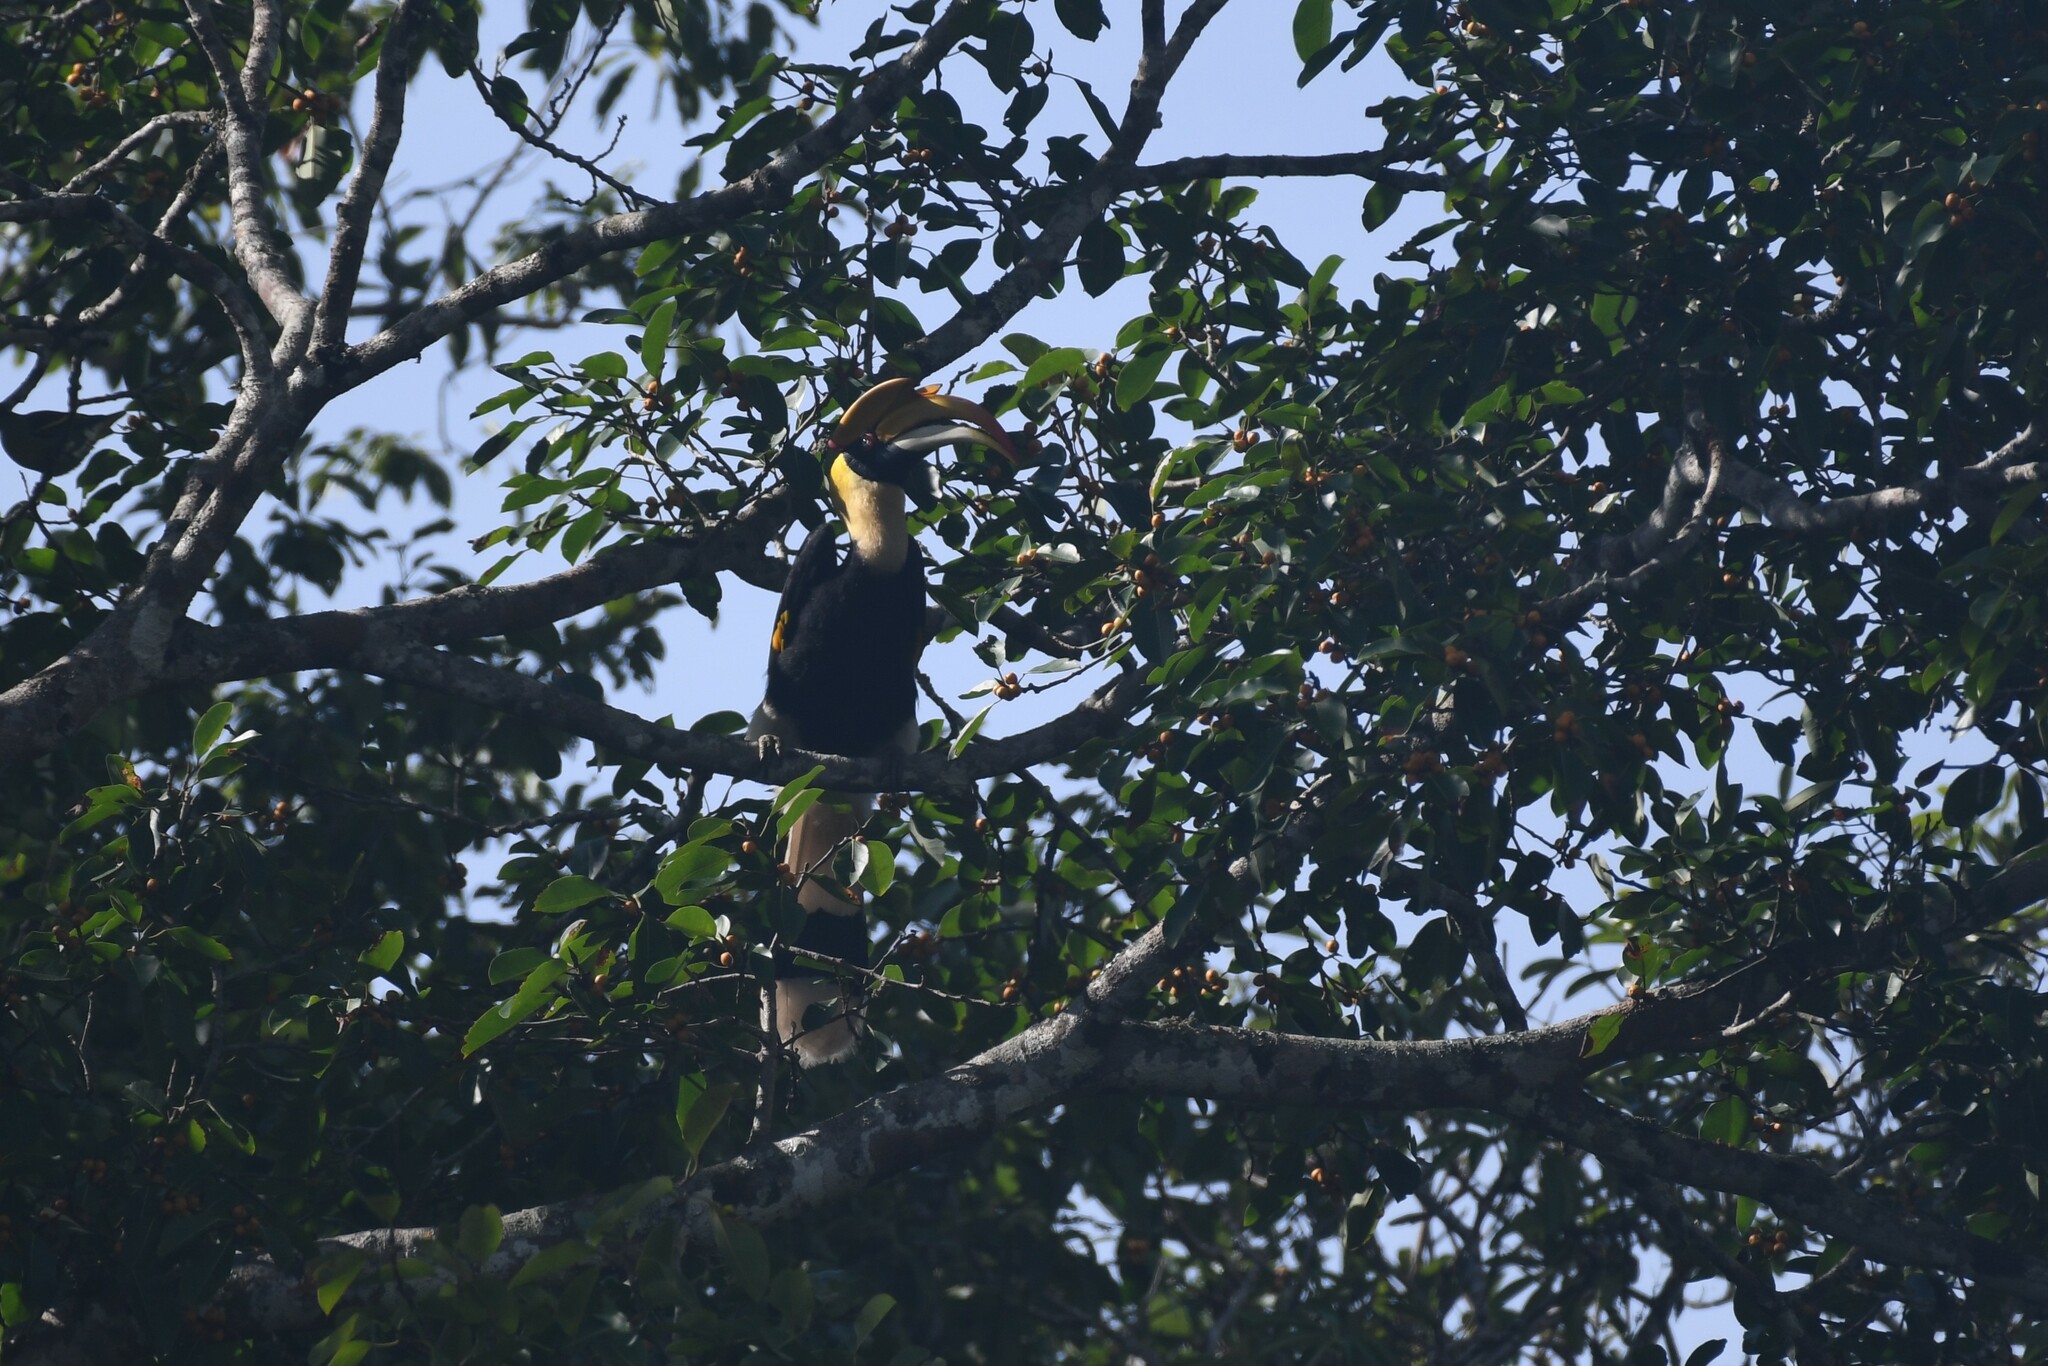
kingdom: Animalia
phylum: Chordata
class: Aves
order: Bucerotiformes
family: Bucerotidae
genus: Buceros
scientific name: Buceros bicornis
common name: Great hornbill
